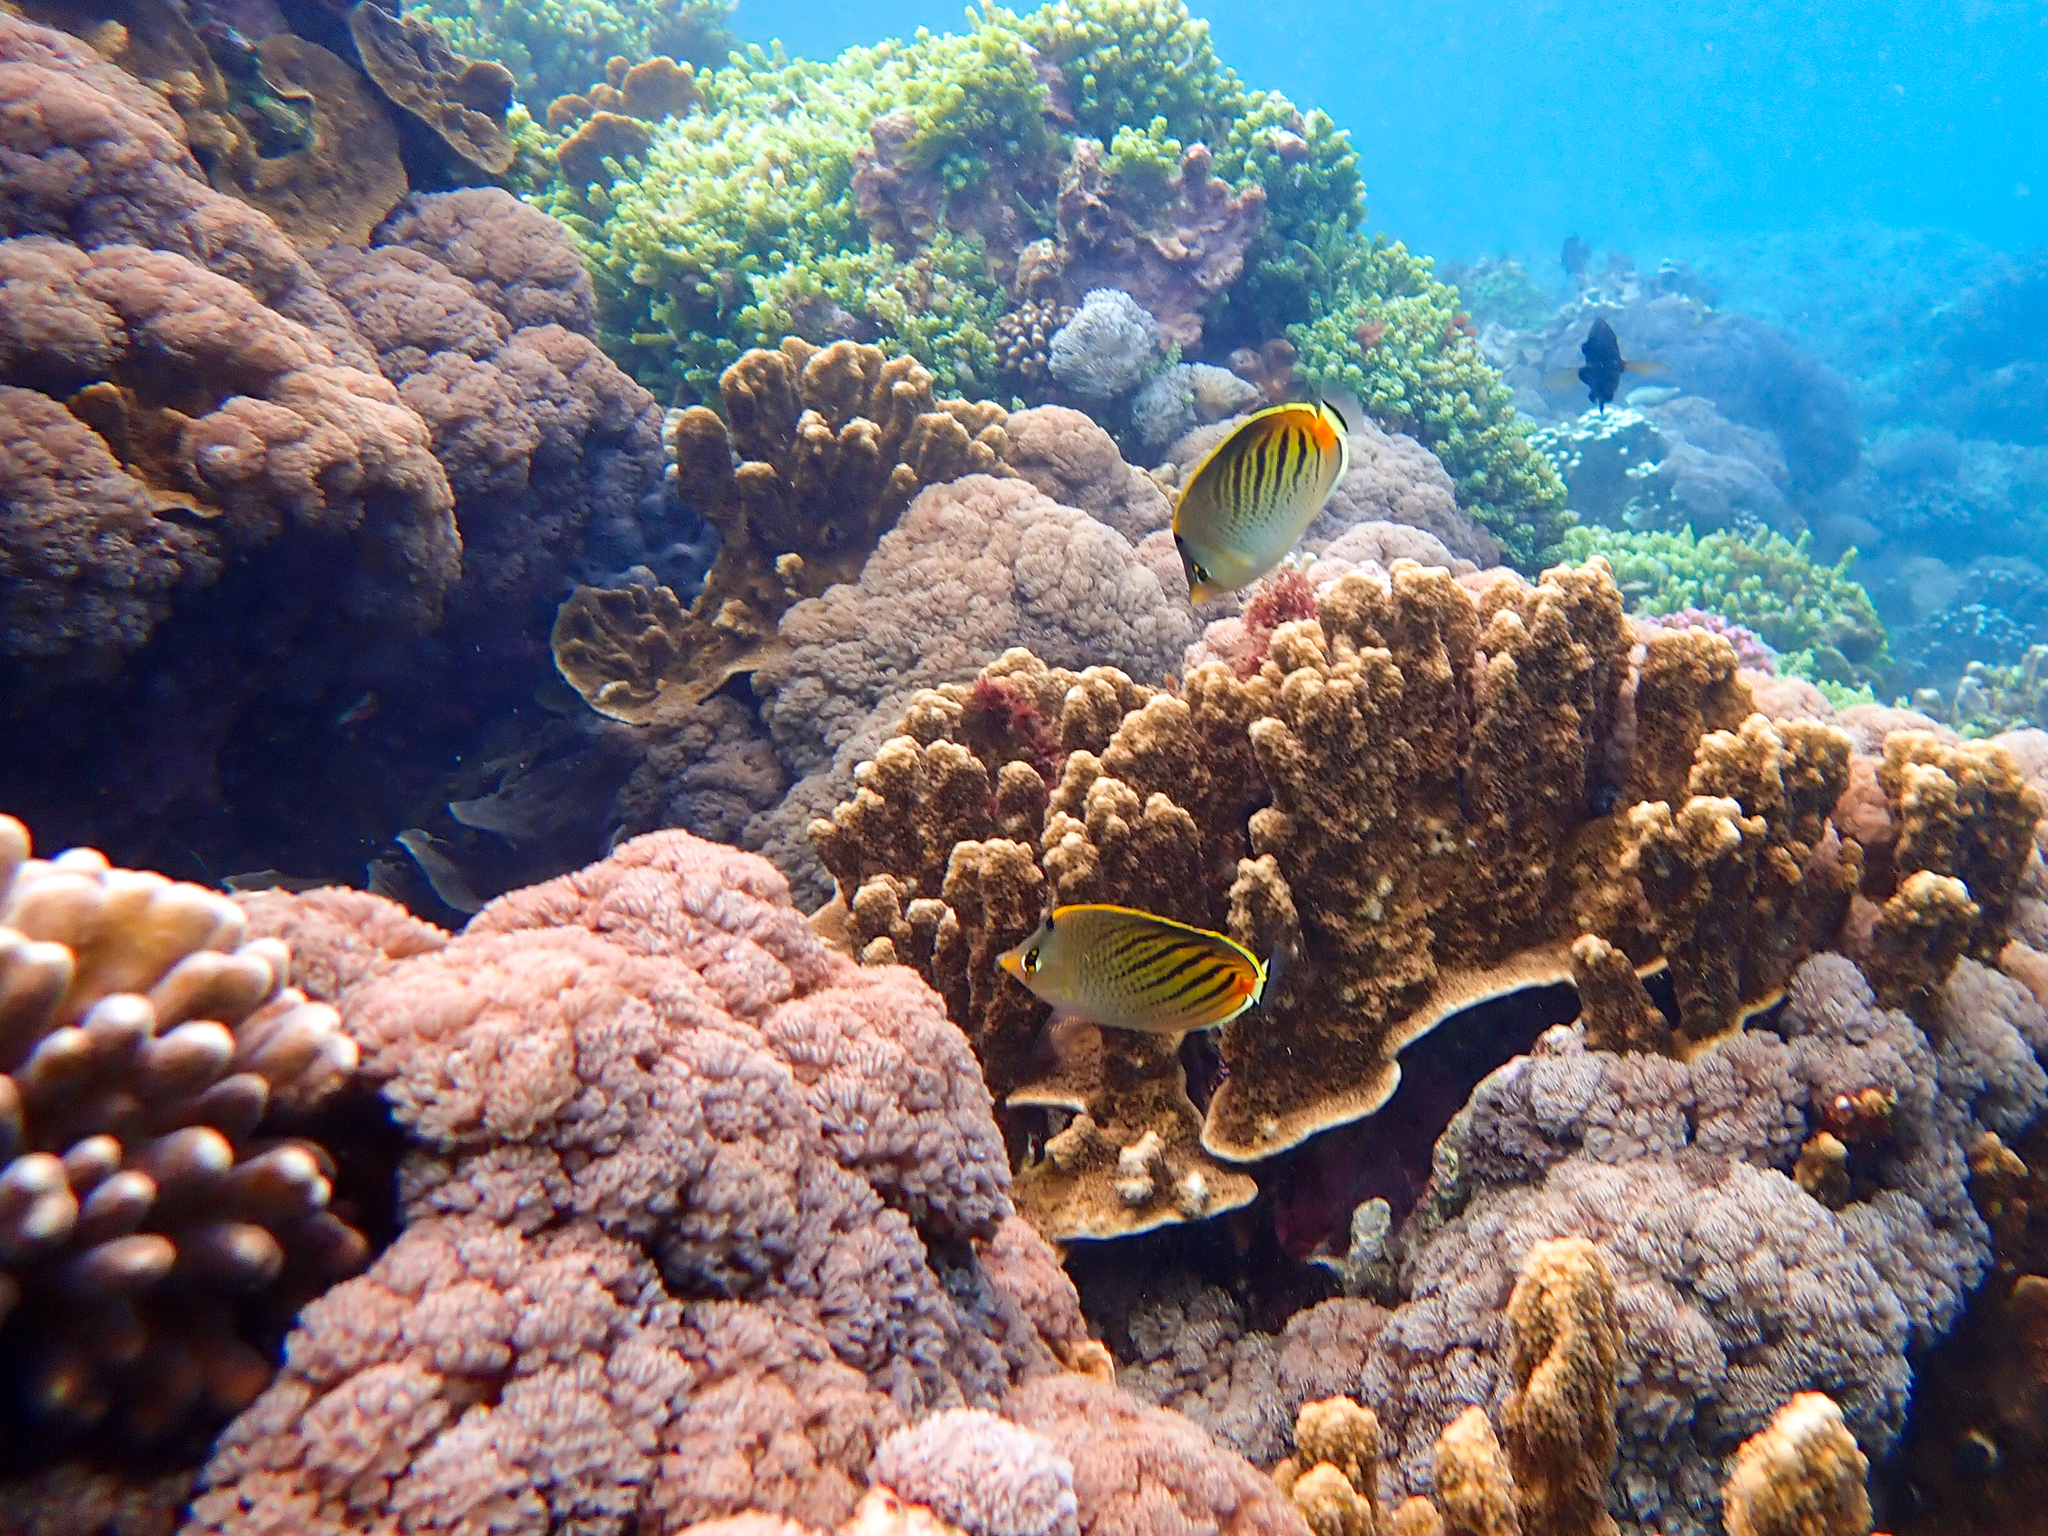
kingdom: Animalia
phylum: Chordata
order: Perciformes
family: Chaetodontidae
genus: Chaetodon
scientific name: Chaetodon pelewensis
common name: Dot-and-dash butterflyfish
